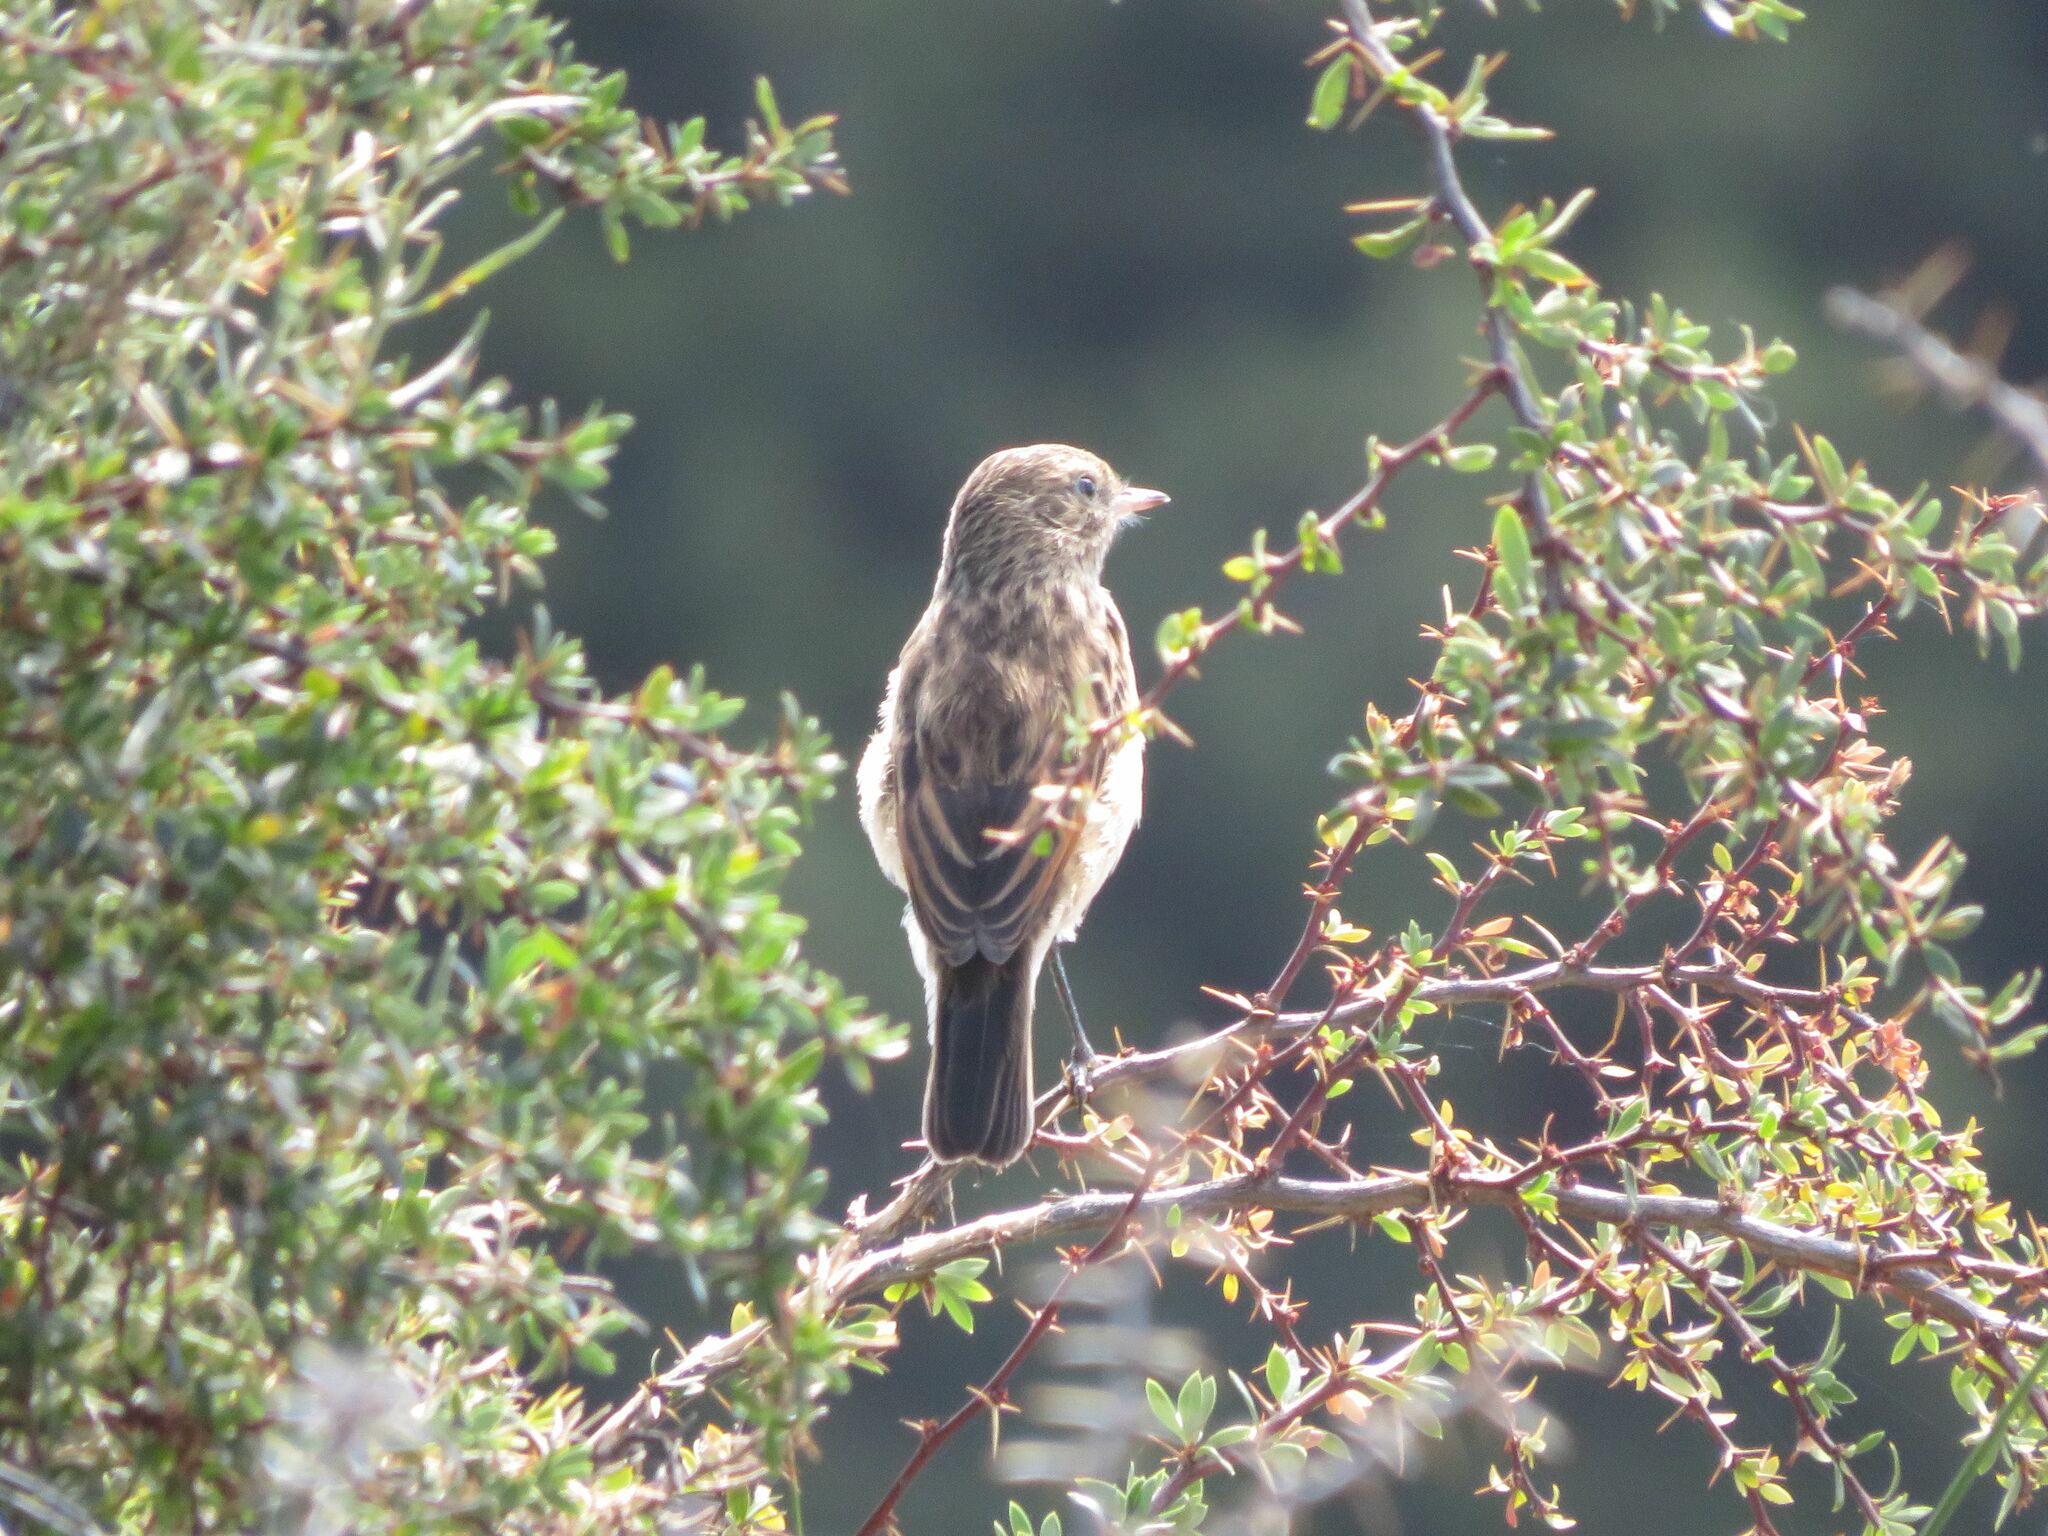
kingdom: Animalia
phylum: Chordata
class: Aves
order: Passeriformes
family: Tyrannidae
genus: Hymenops
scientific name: Hymenops perspicillatus
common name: Spectacled tyrant
